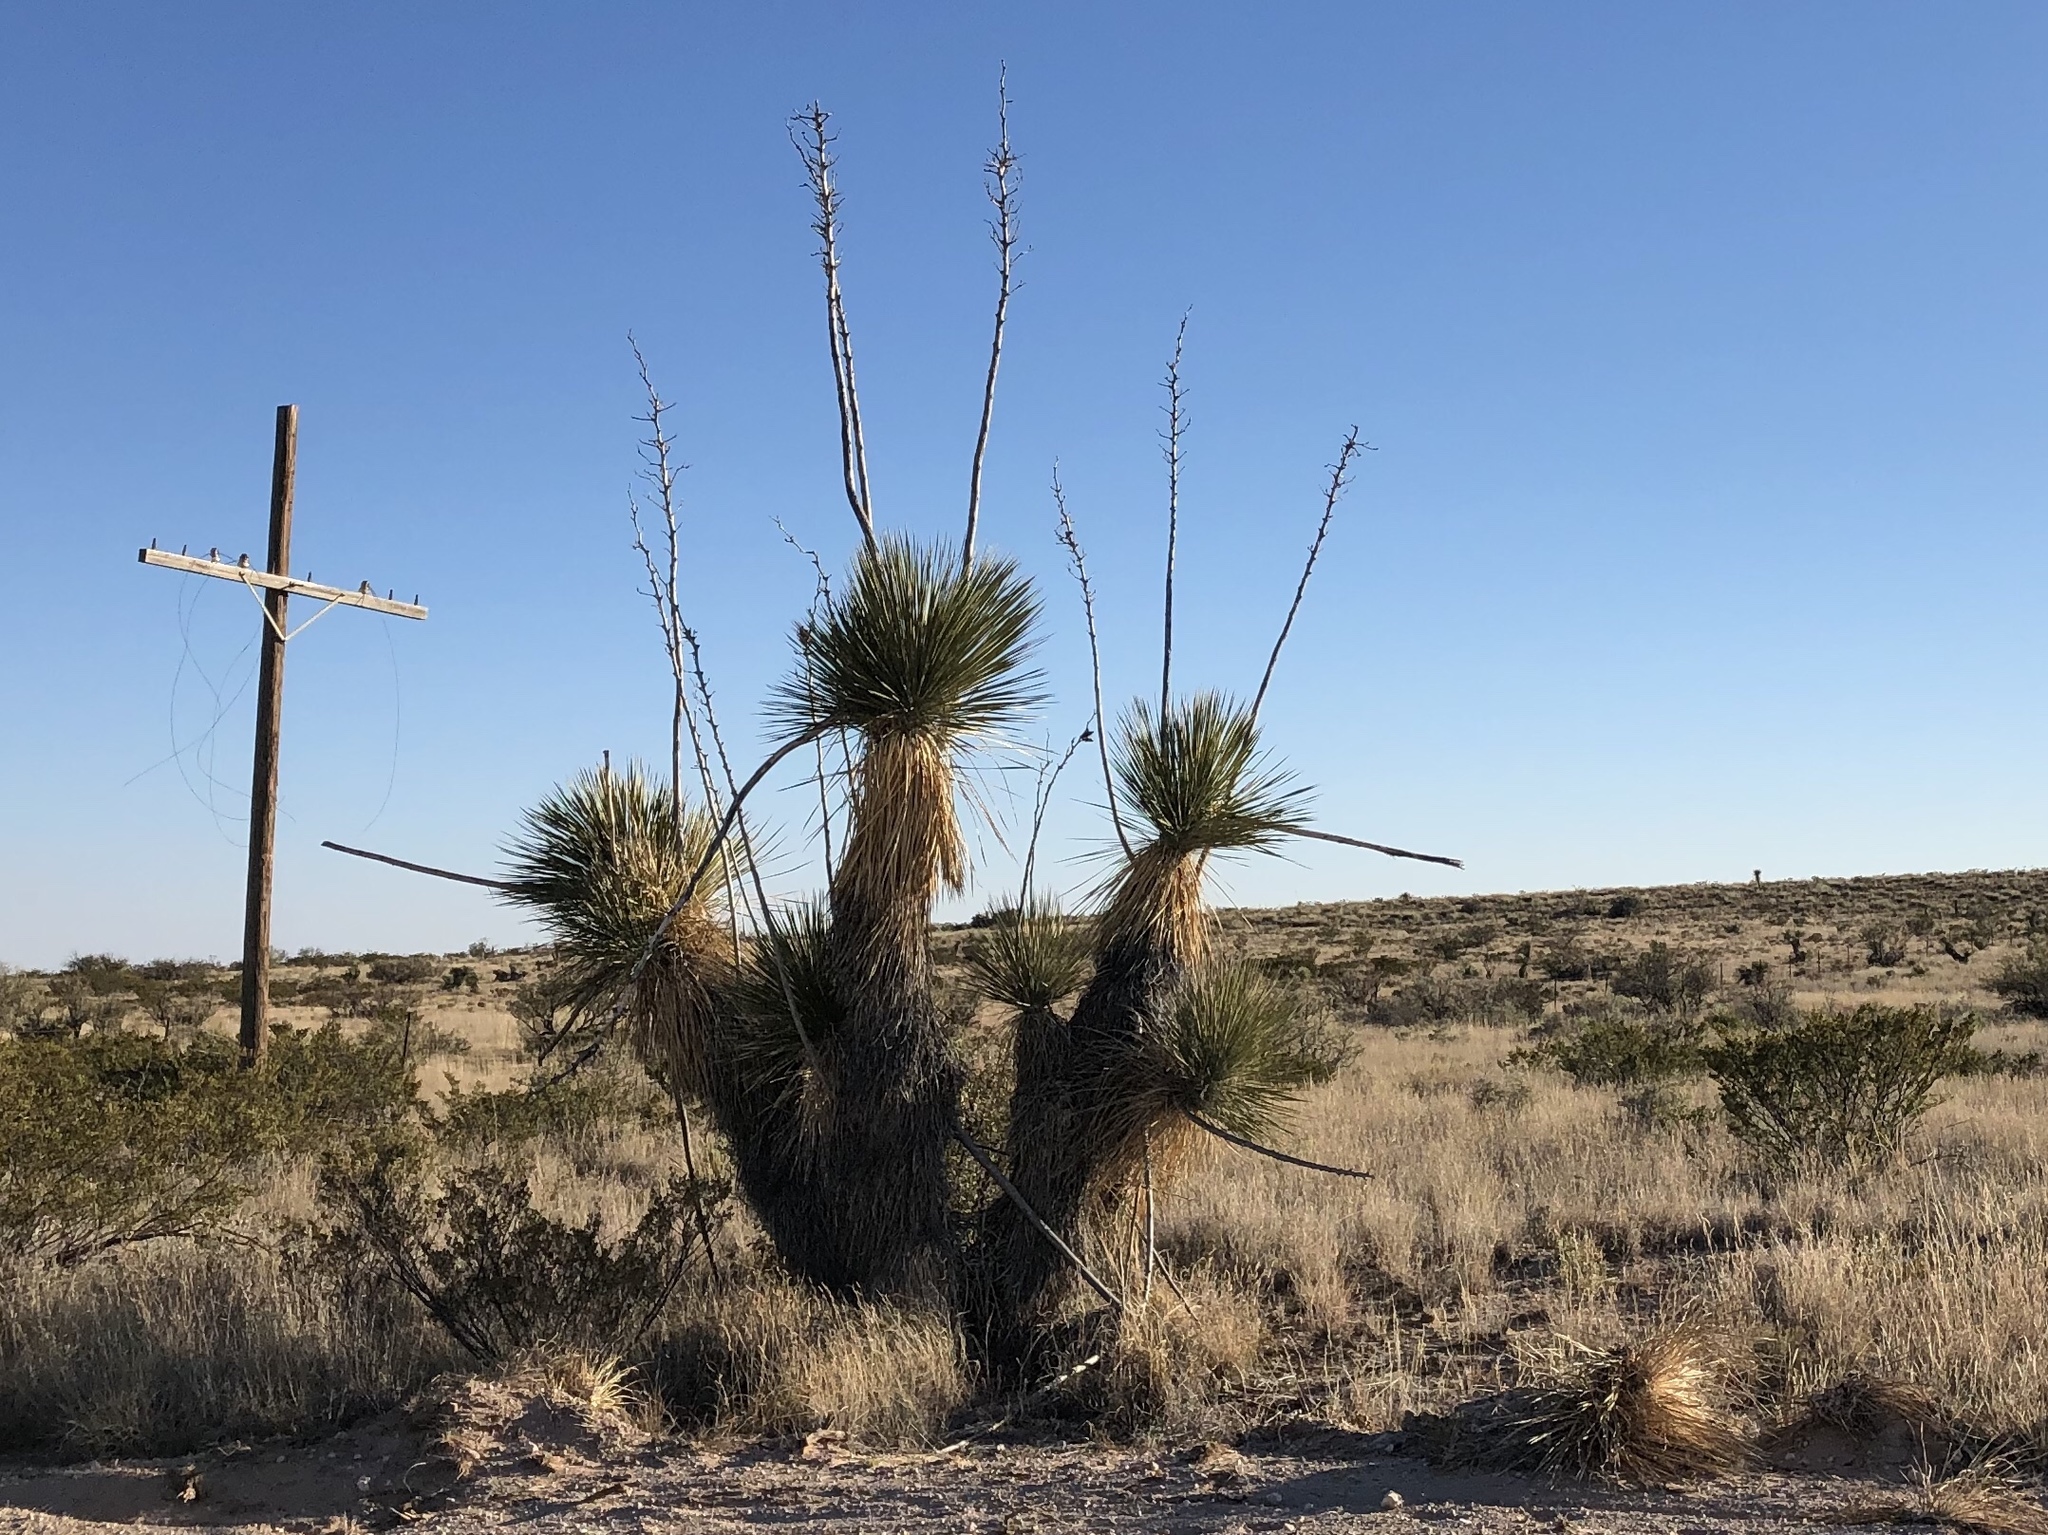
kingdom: Plantae
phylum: Tracheophyta
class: Liliopsida
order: Asparagales
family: Asparagaceae
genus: Yucca
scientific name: Yucca elata
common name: Palmella
